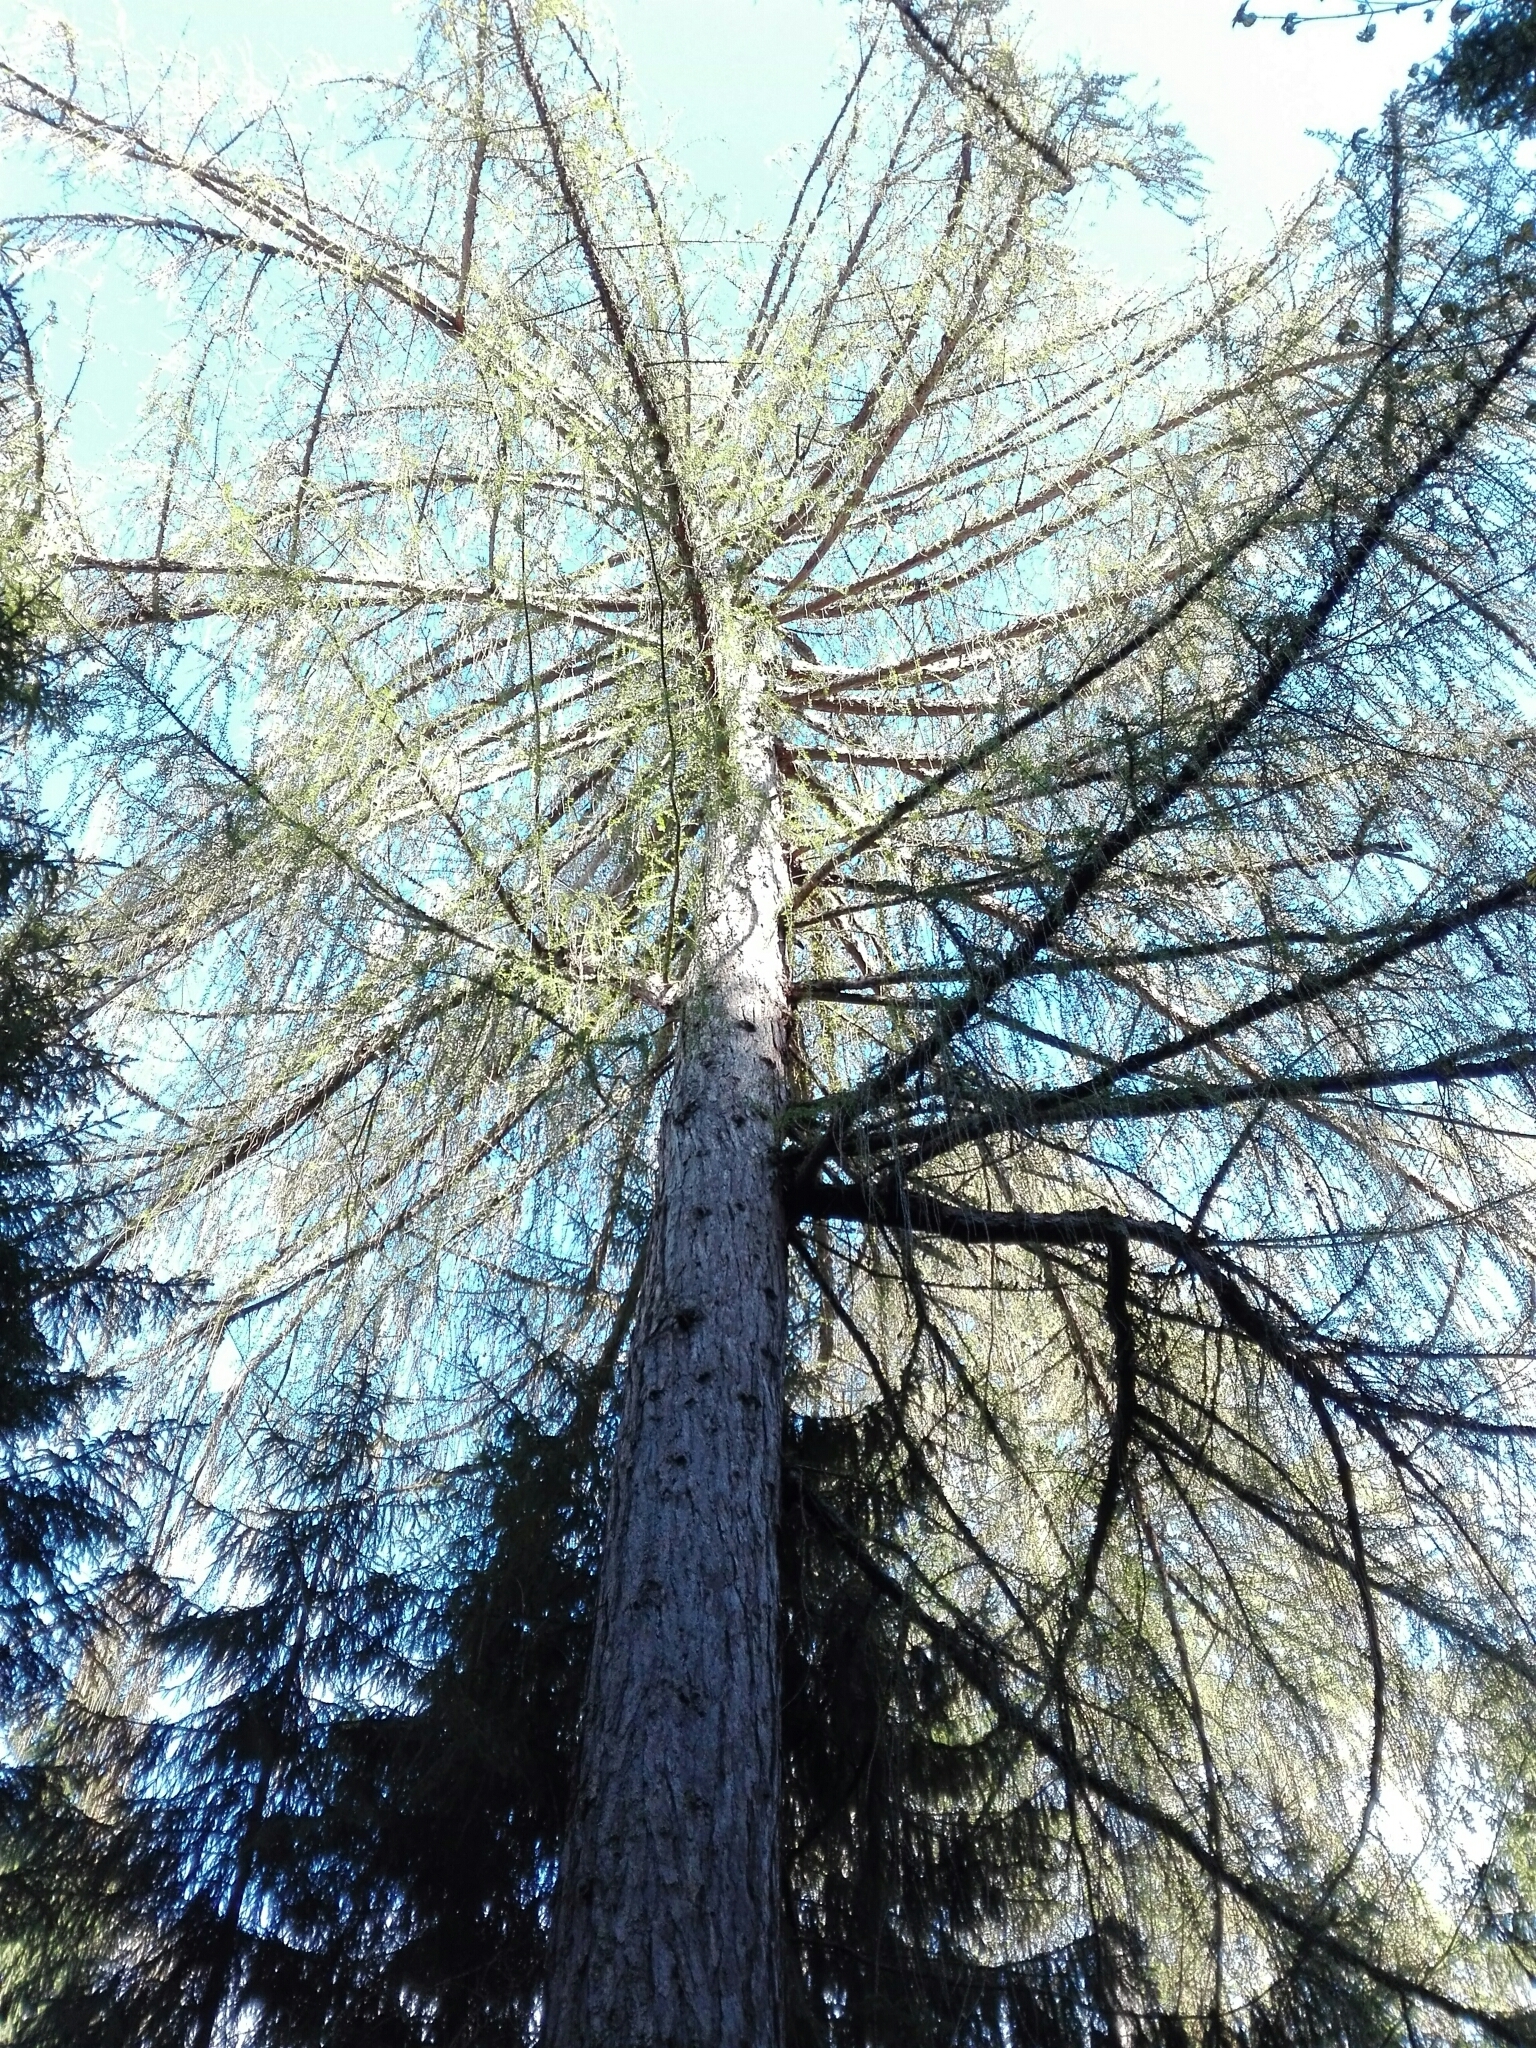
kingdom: Plantae
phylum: Tracheophyta
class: Pinopsida
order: Pinales
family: Pinaceae
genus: Larix
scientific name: Larix decidua
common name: European larch
